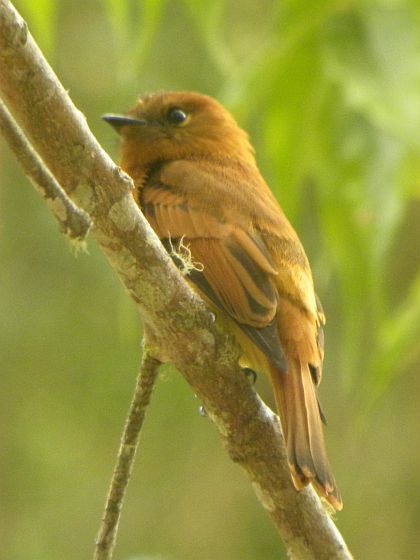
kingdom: Animalia
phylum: Chordata
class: Aves
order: Passeriformes
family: Tyrannidae
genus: Pyrrhomyias
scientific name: Pyrrhomyias cinnamomeus
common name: Cinnamon flycatcher
